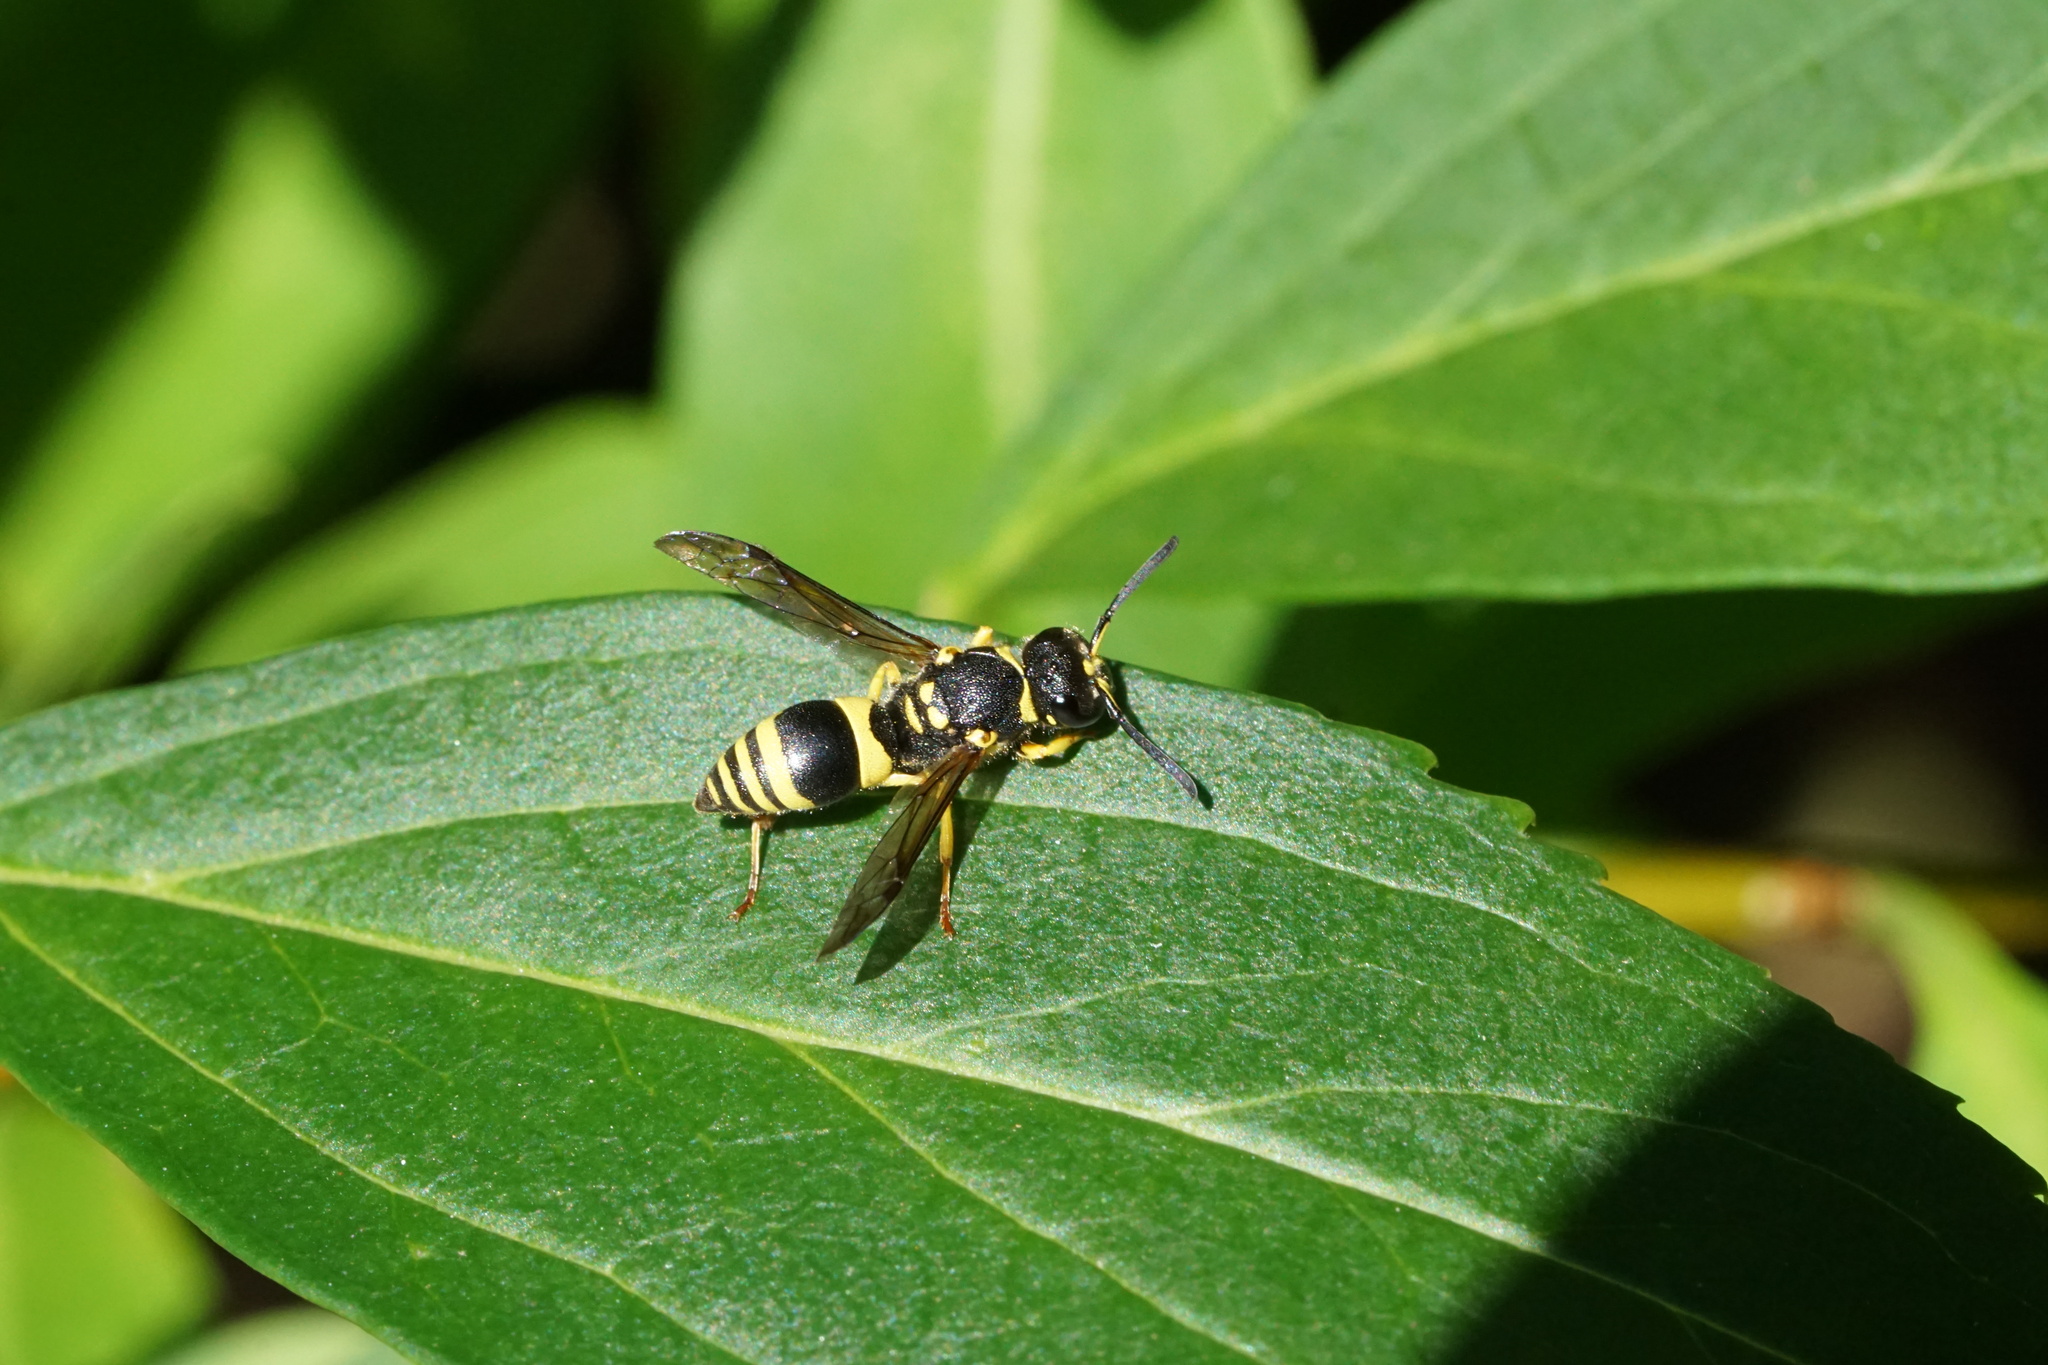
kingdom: Animalia
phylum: Arthropoda
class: Insecta
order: Hymenoptera
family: Vespidae
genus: Ancistrocerus
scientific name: Ancistrocerus gazella
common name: European tube wasp
